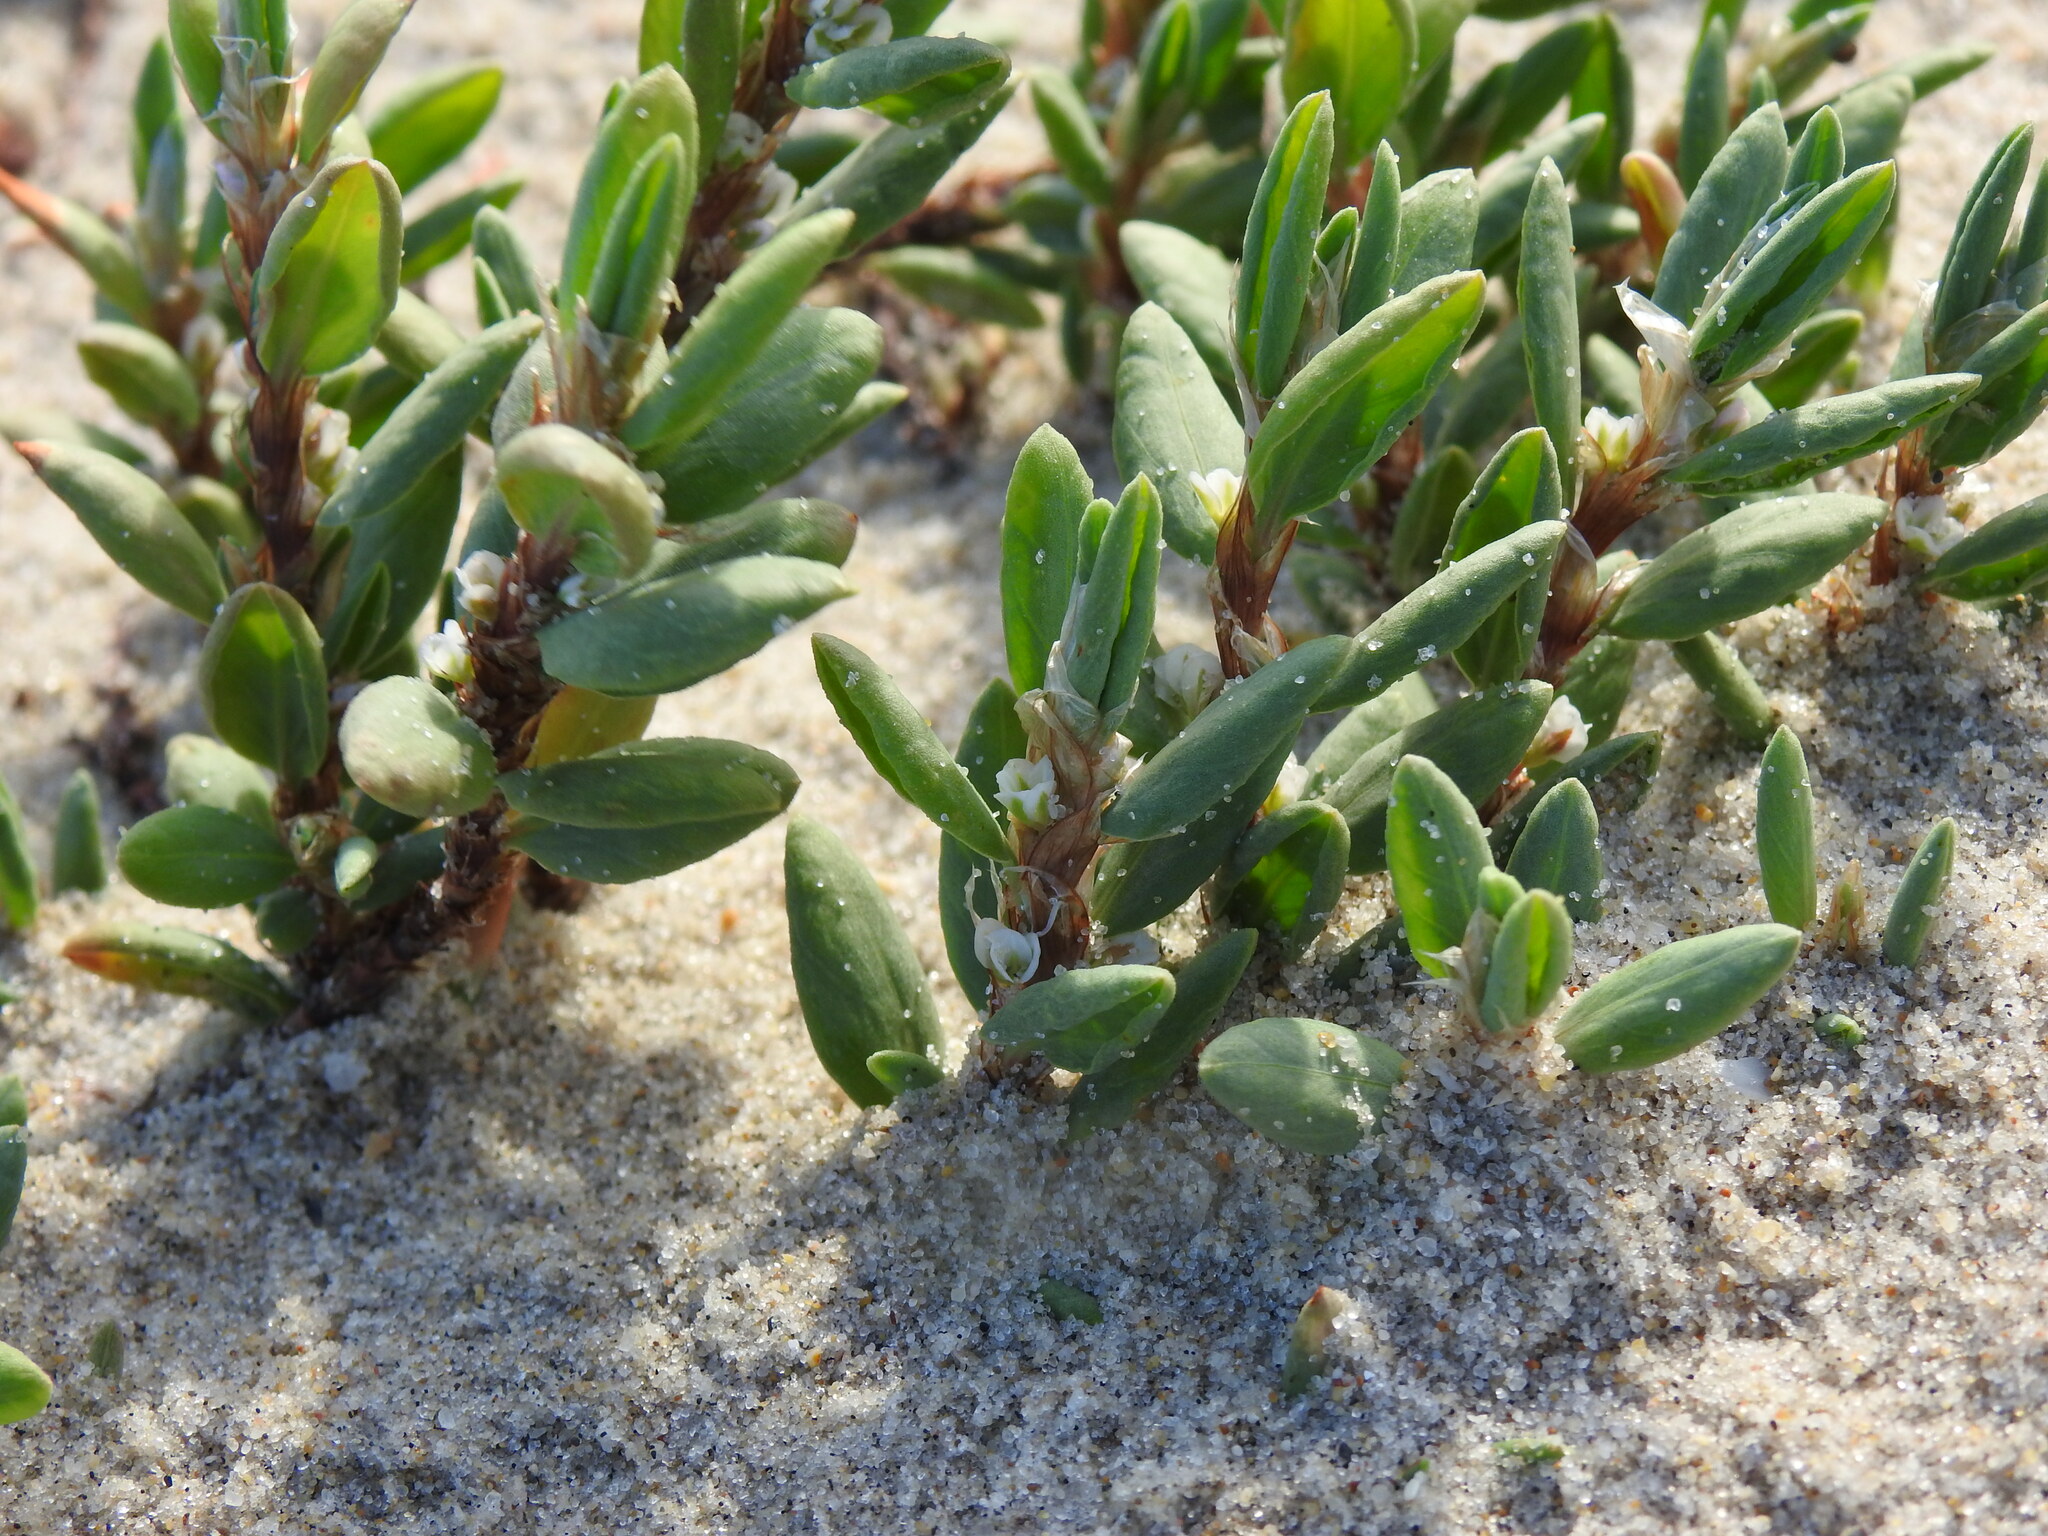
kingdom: Plantae
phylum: Tracheophyta
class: Magnoliopsida
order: Caryophyllales
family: Polygonaceae
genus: Polygonum
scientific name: Polygonum maritimum
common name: Sea knotgrass
